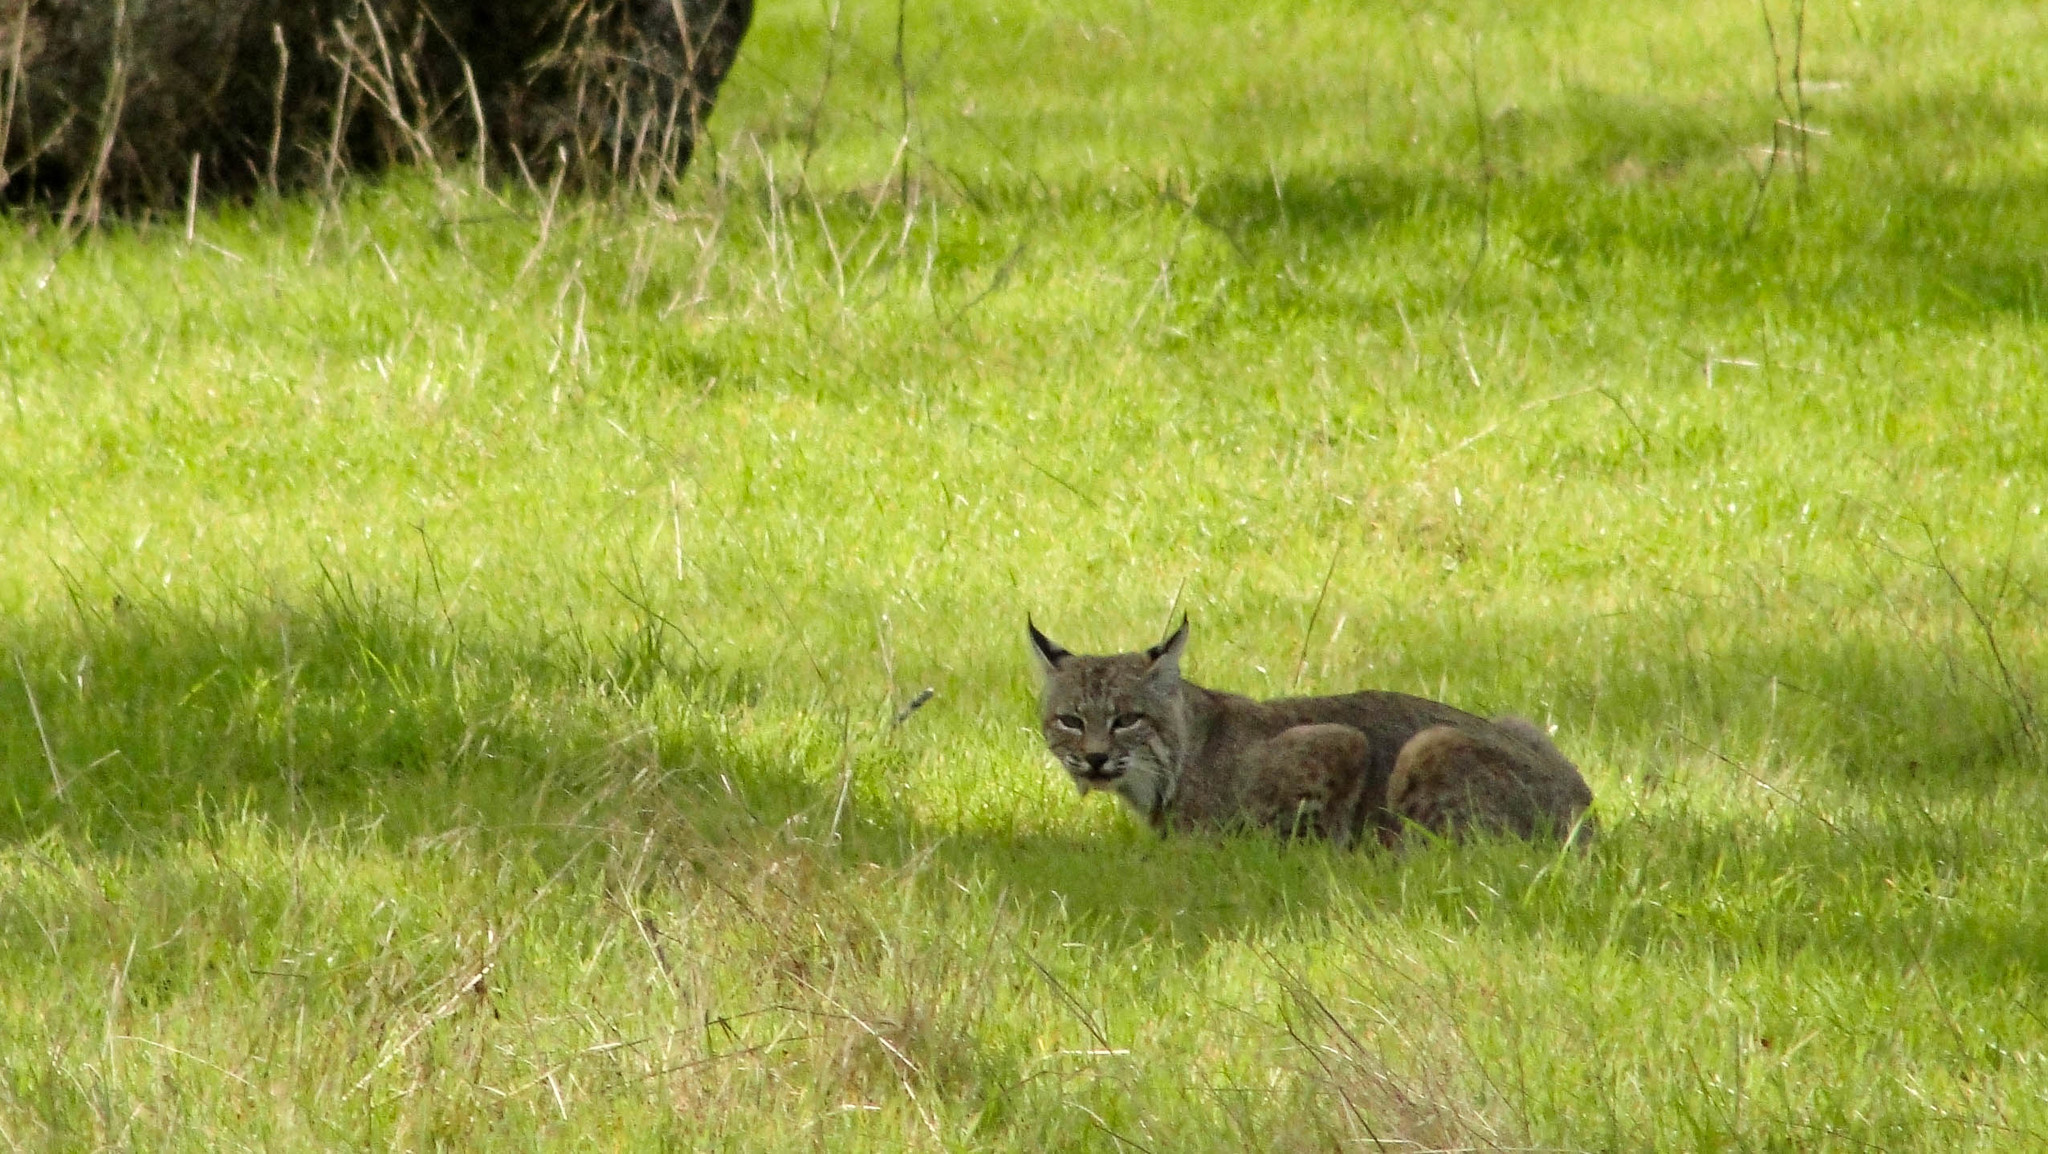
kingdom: Animalia
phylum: Chordata
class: Mammalia
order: Carnivora
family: Felidae
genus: Lynx
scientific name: Lynx rufus
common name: Bobcat
